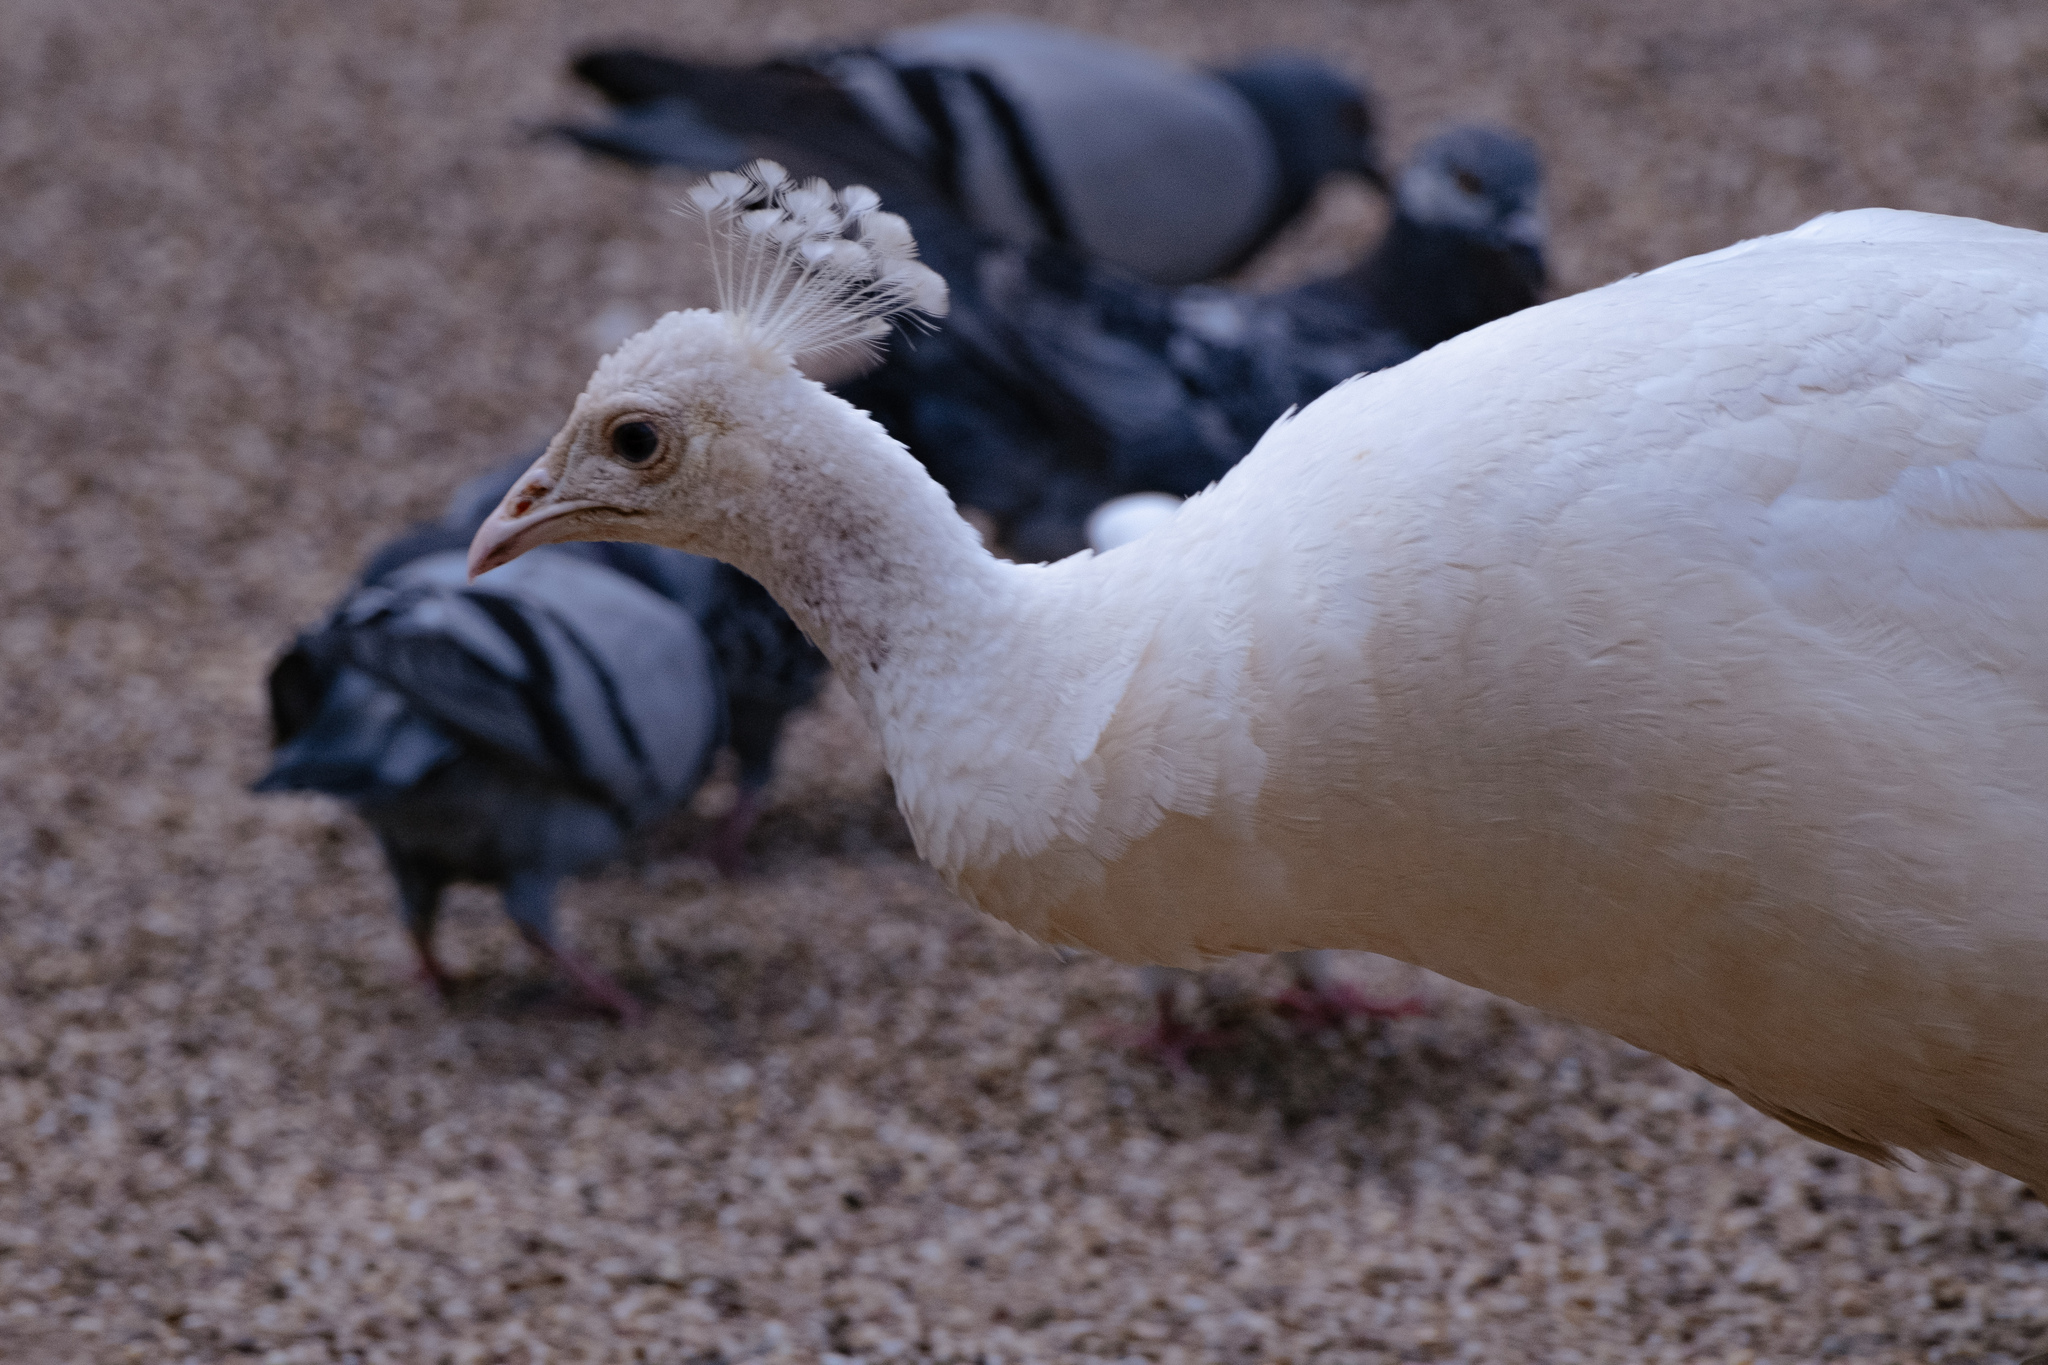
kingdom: Animalia
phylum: Chordata
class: Aves
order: Galliformes
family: Phasianidae
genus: Pavo
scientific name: Pavo cristatus
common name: Indian peafowl
